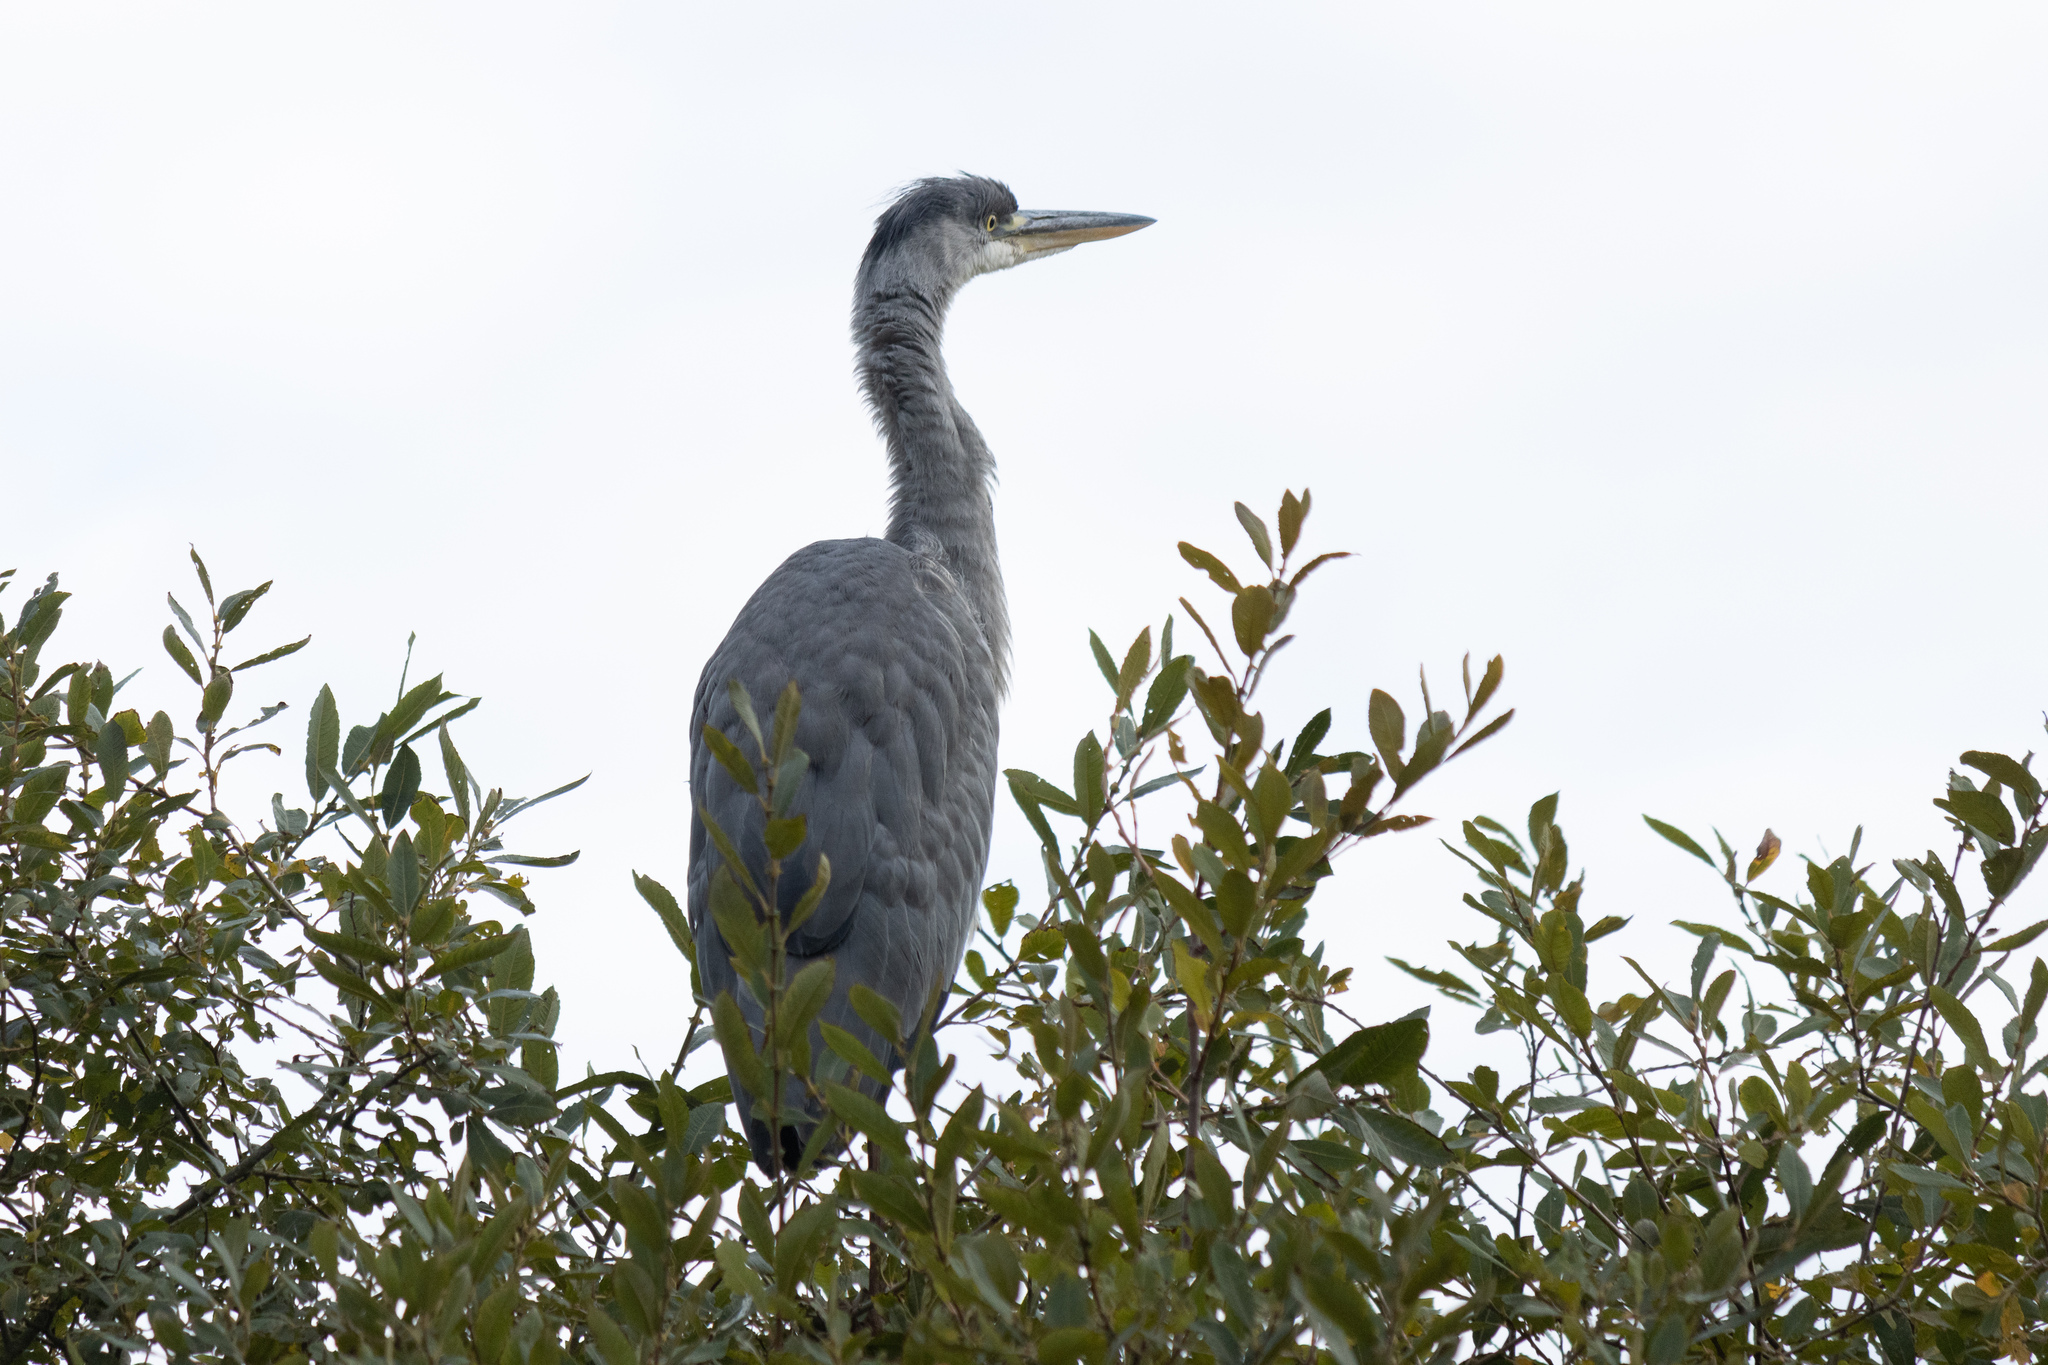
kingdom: Animalia
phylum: Chordata
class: Aves
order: Pelecaniformes
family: Ardeidae
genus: Ardea
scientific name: Ardea cinerea
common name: Grey heron
